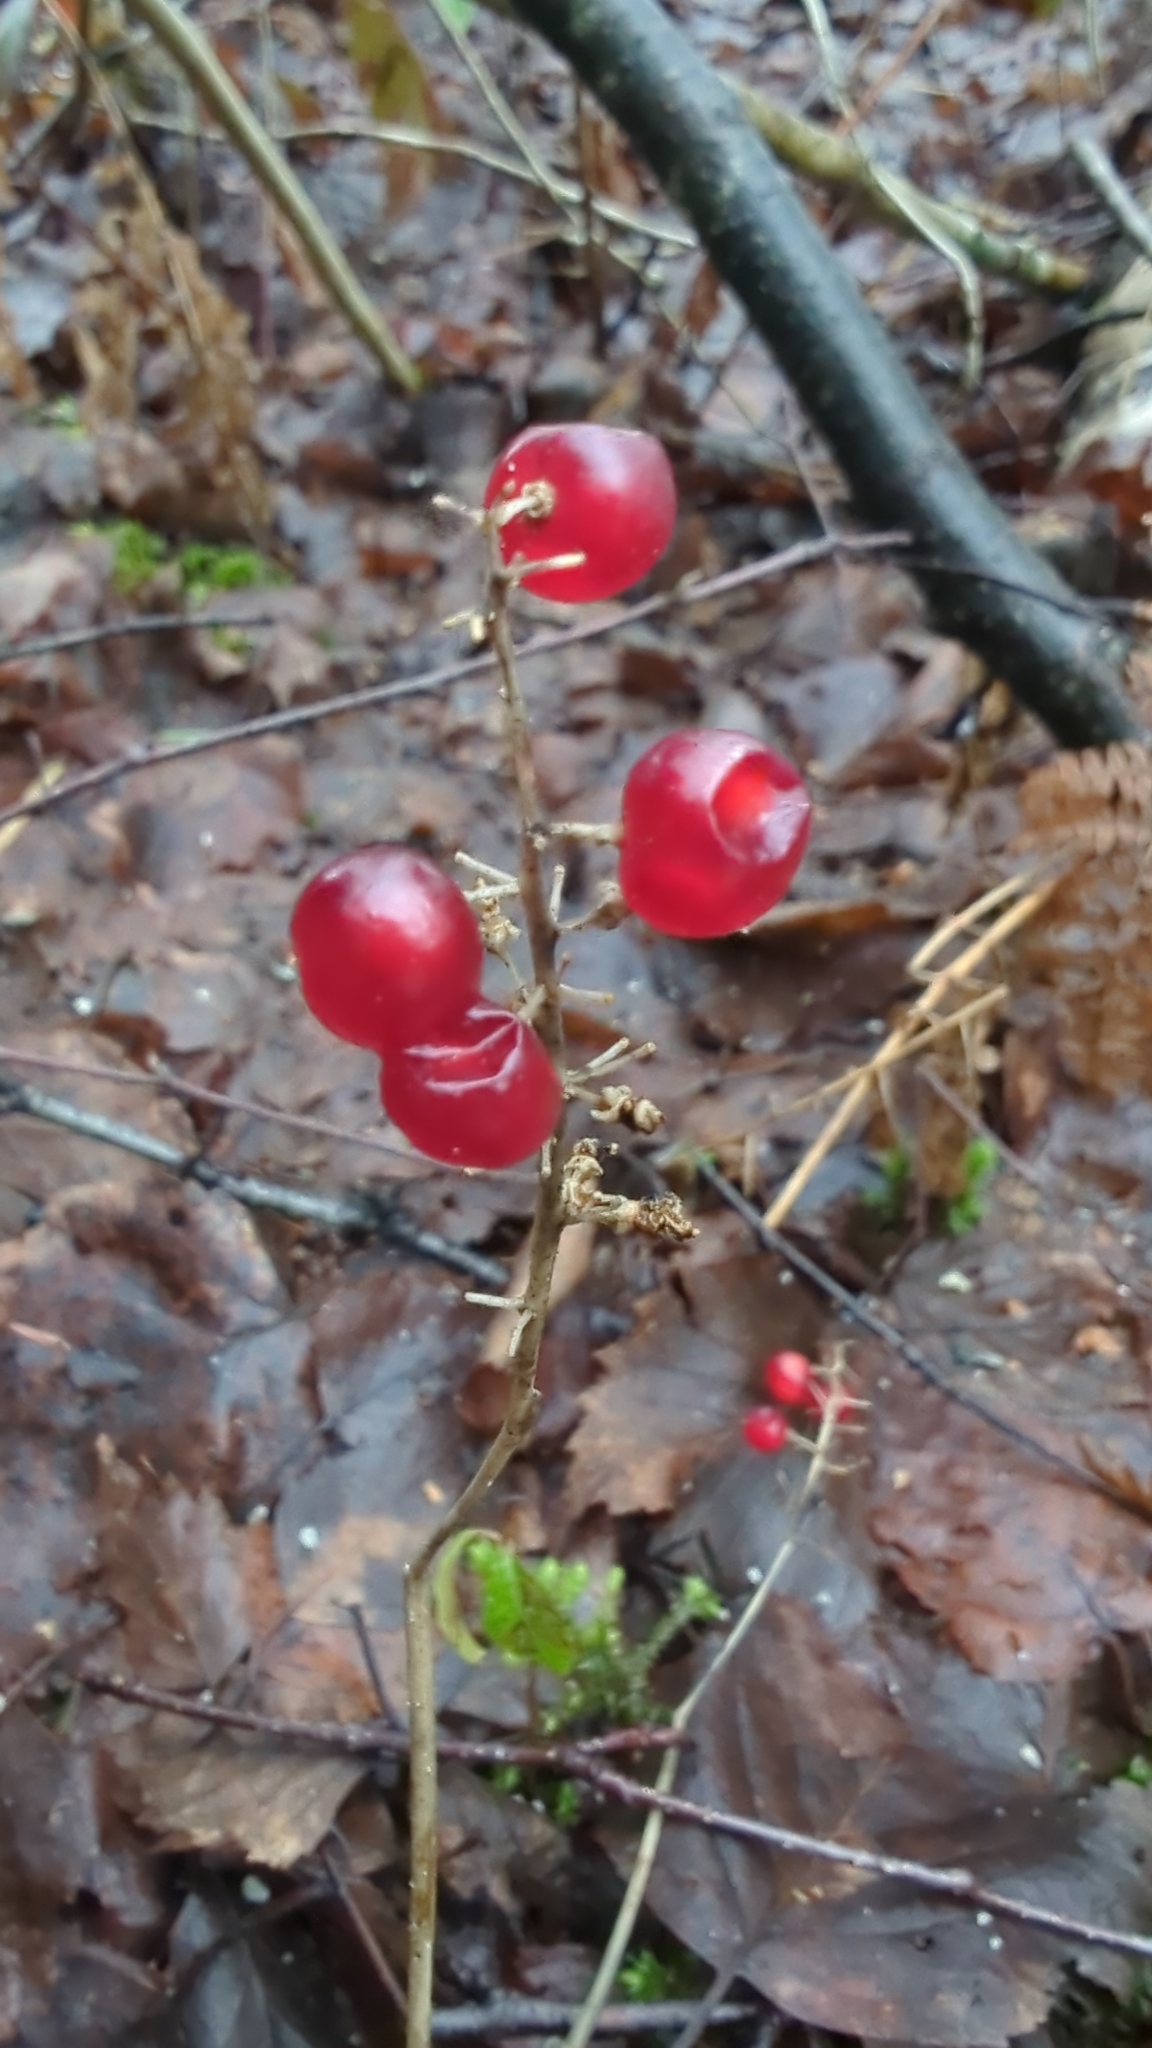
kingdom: Plantae
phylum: Tracheophyta
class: Liliopsida
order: Asparagales
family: Asparagaceae
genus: Maianthemum
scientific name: Maianthemum dilatatum
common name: False lily-of-the-valley
